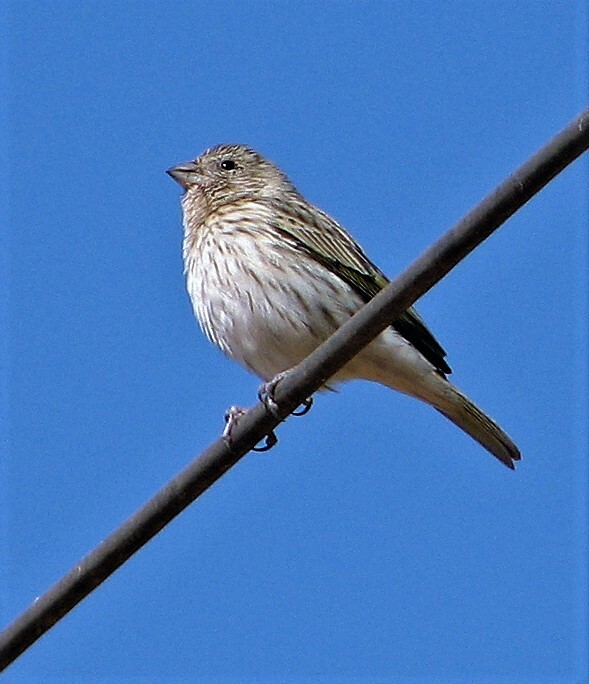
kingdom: Animalia
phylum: Chordata
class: Aves
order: Passeriformes
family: Thraupidae
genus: Sicalis
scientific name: Sicalis flaveola
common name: Saffron finch
